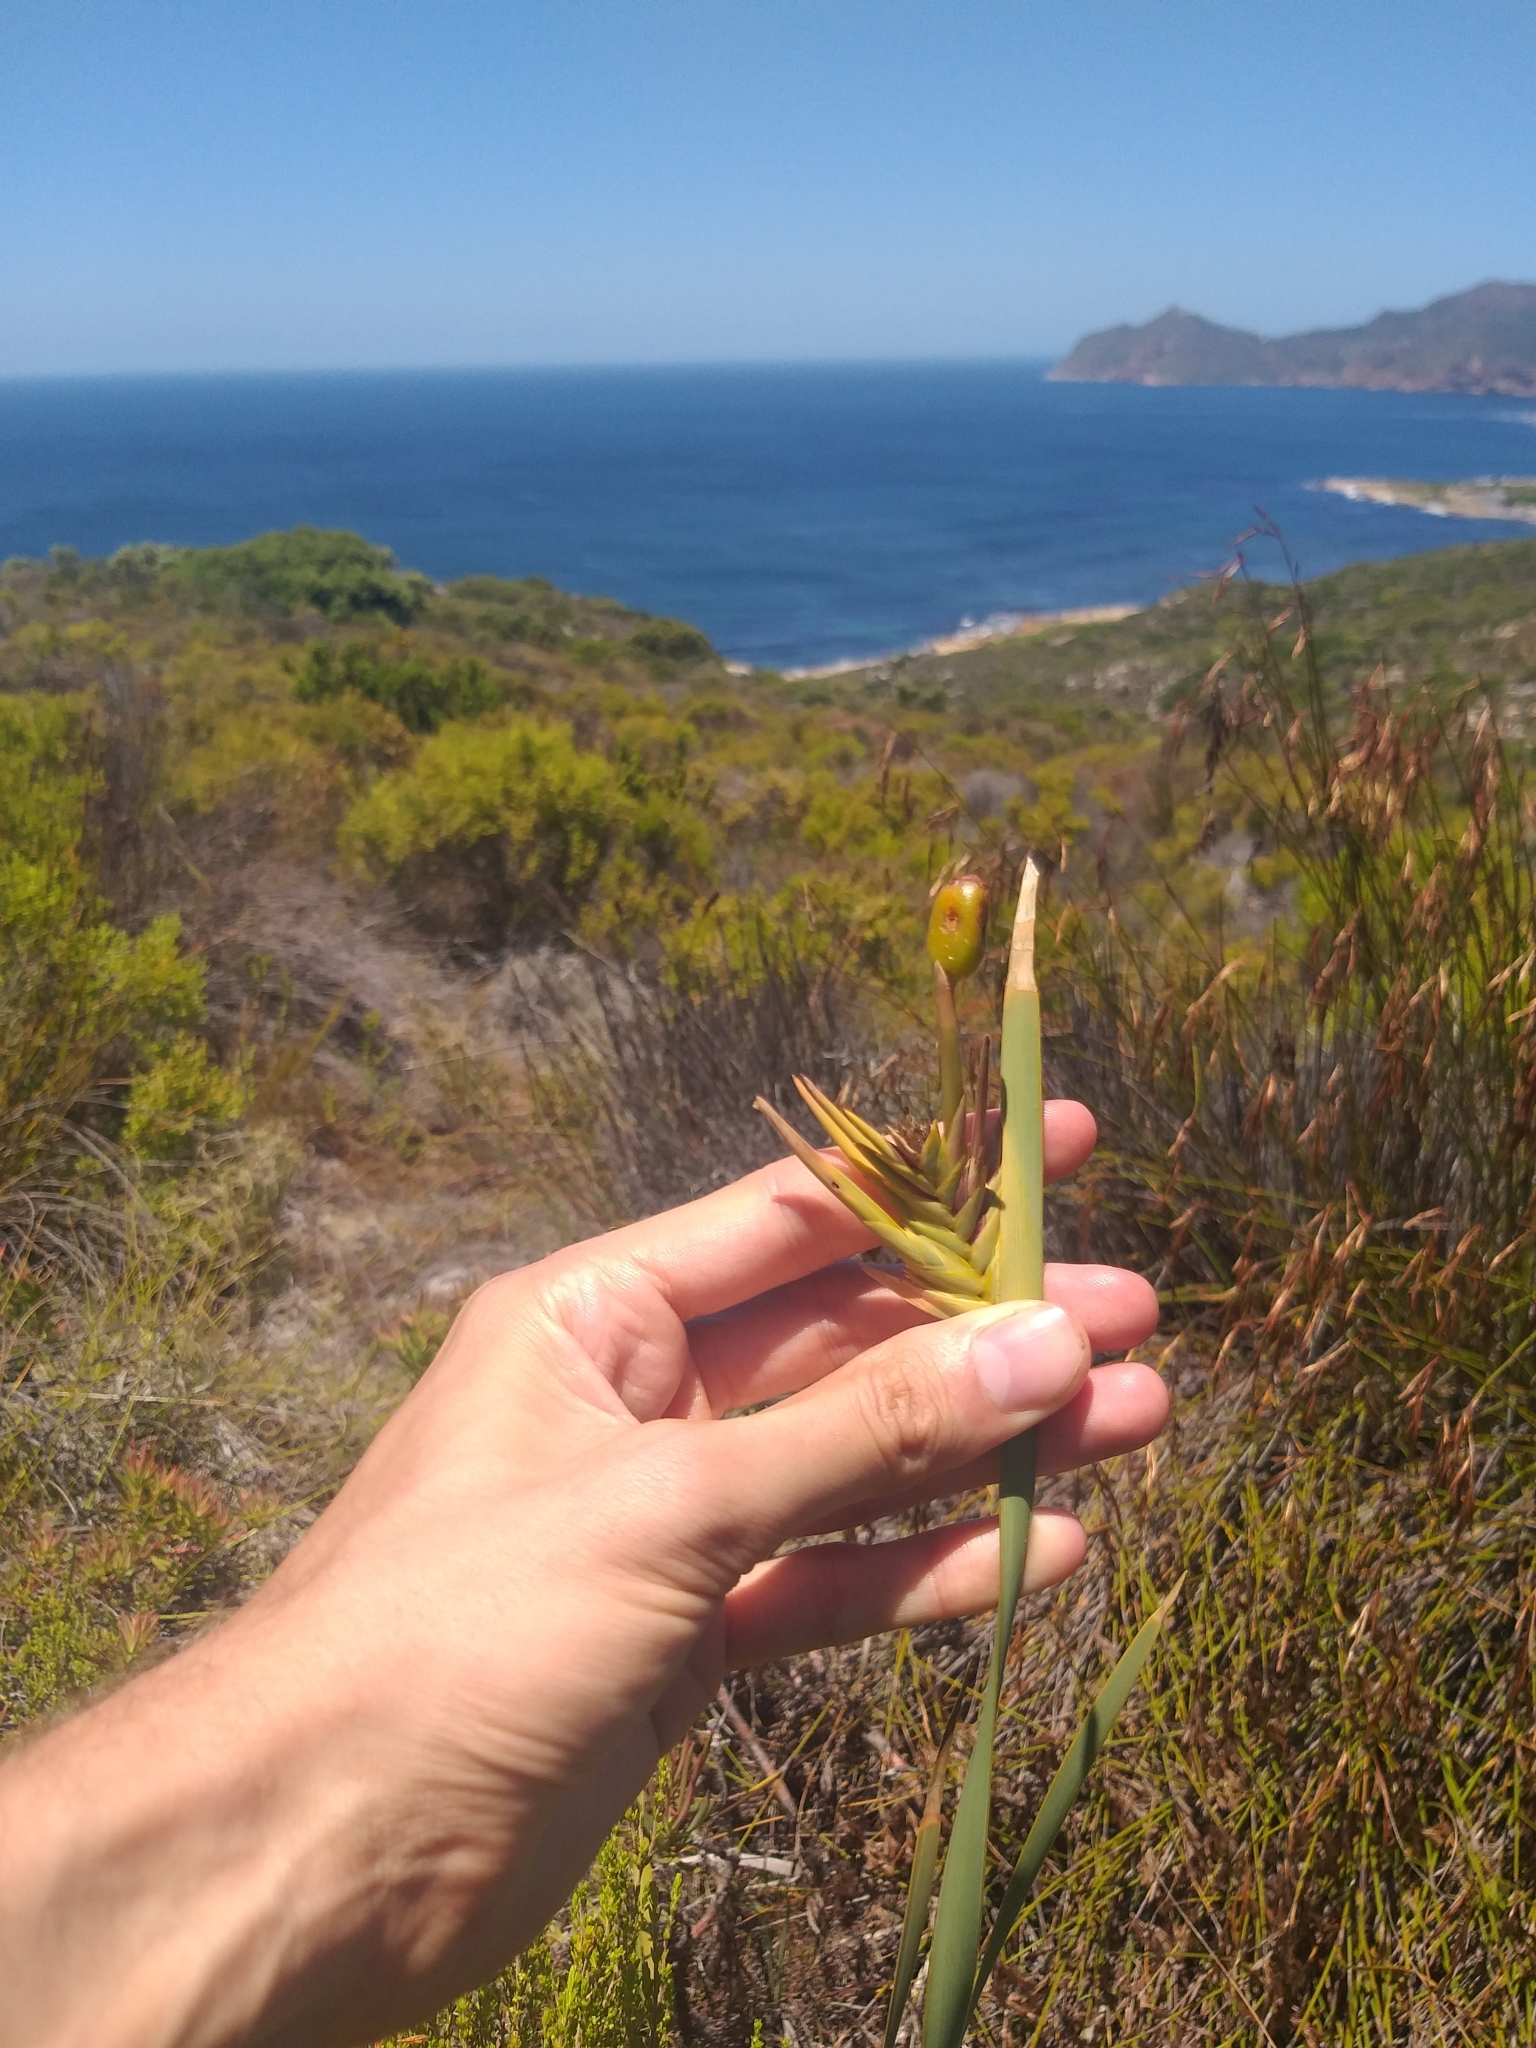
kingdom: Plantae
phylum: Tracheophyta
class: Liliopsida
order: Asparagales
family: Iridaceae
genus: Bobartia
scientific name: Bobartia gladiata
